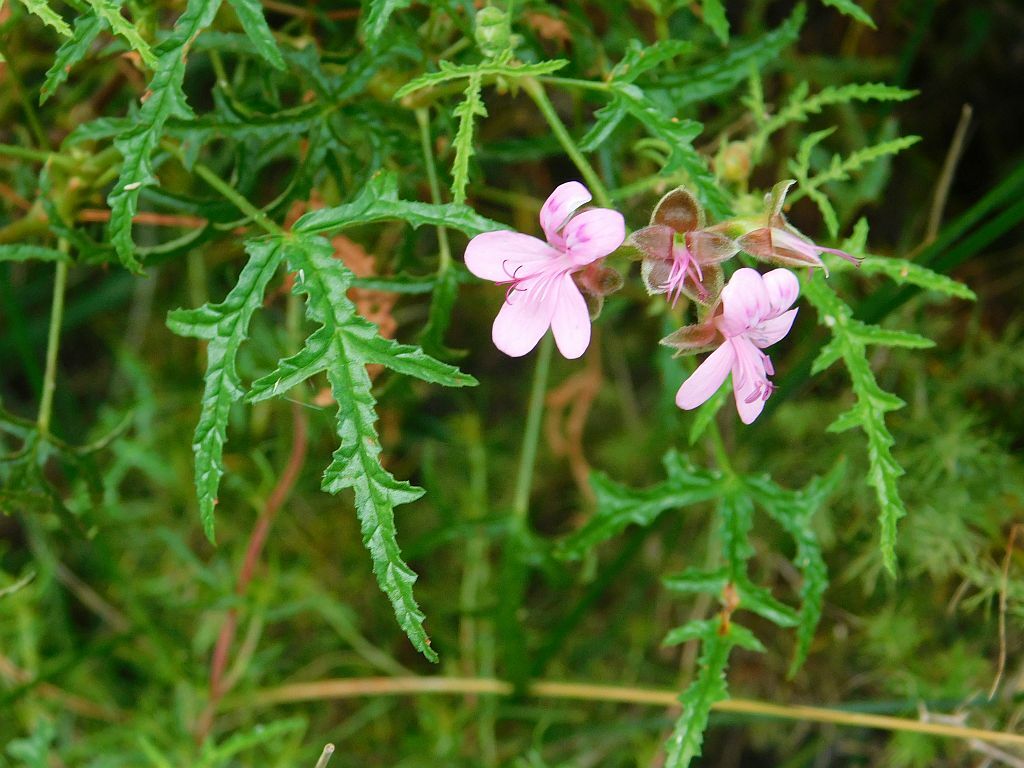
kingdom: Plantae
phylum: Tracheophyta
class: Magnoliopsida
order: Geraniales
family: Geraniaceae
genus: Pelargonium
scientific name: Pelargonium glutinosum
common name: Pheasant-foot geranium
